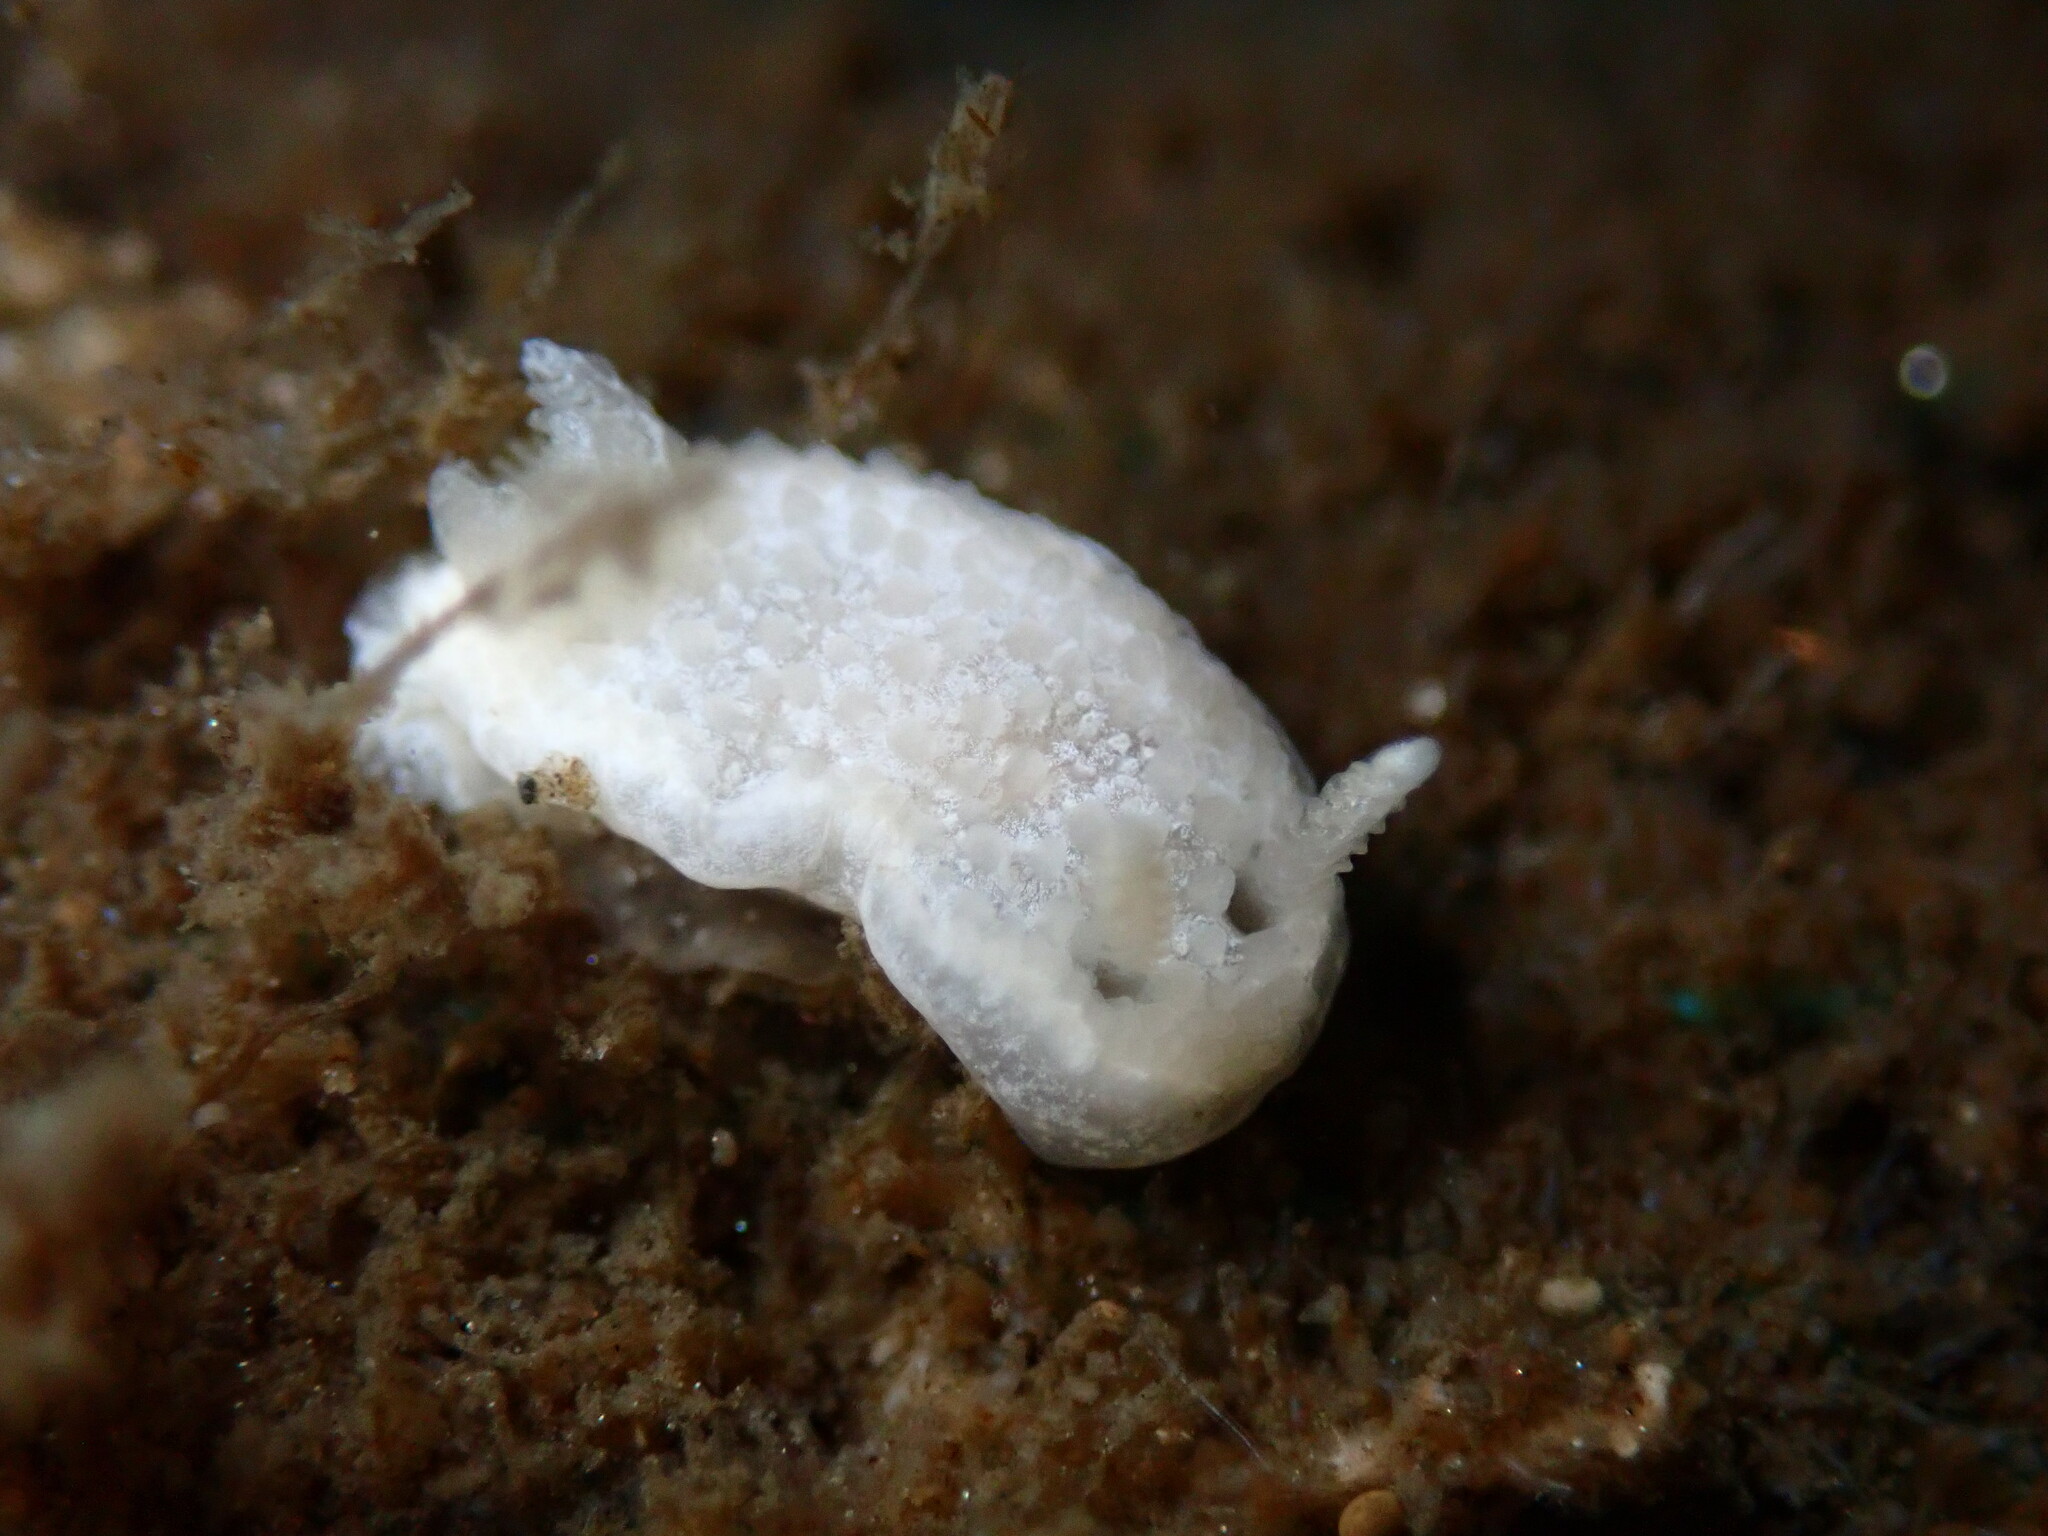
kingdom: Animalia
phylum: Mollusca
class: Gastropoda
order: Nudibranchia
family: Calycidorididae
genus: Diaphorodoris
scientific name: Diaphorodoris lirulatocauda
